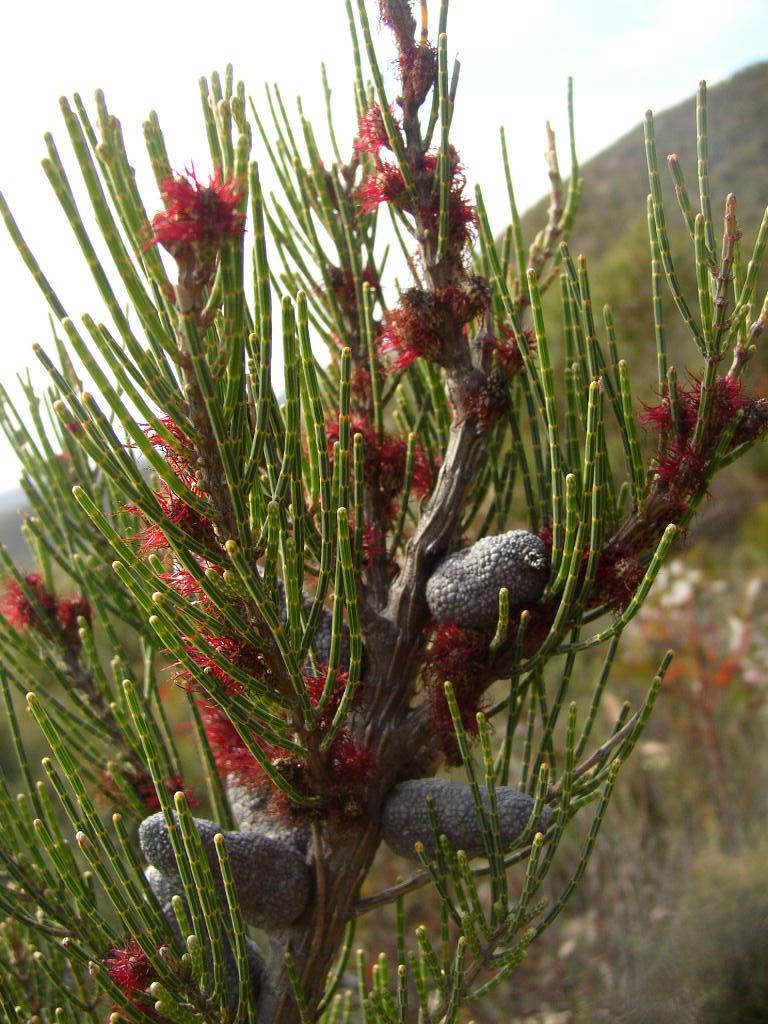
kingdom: Plantae
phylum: Tracheophyta
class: Magnoliopsida
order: Fagales
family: Casuarinaceae
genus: Allocasuarina
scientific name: Allocasuarina humilis
